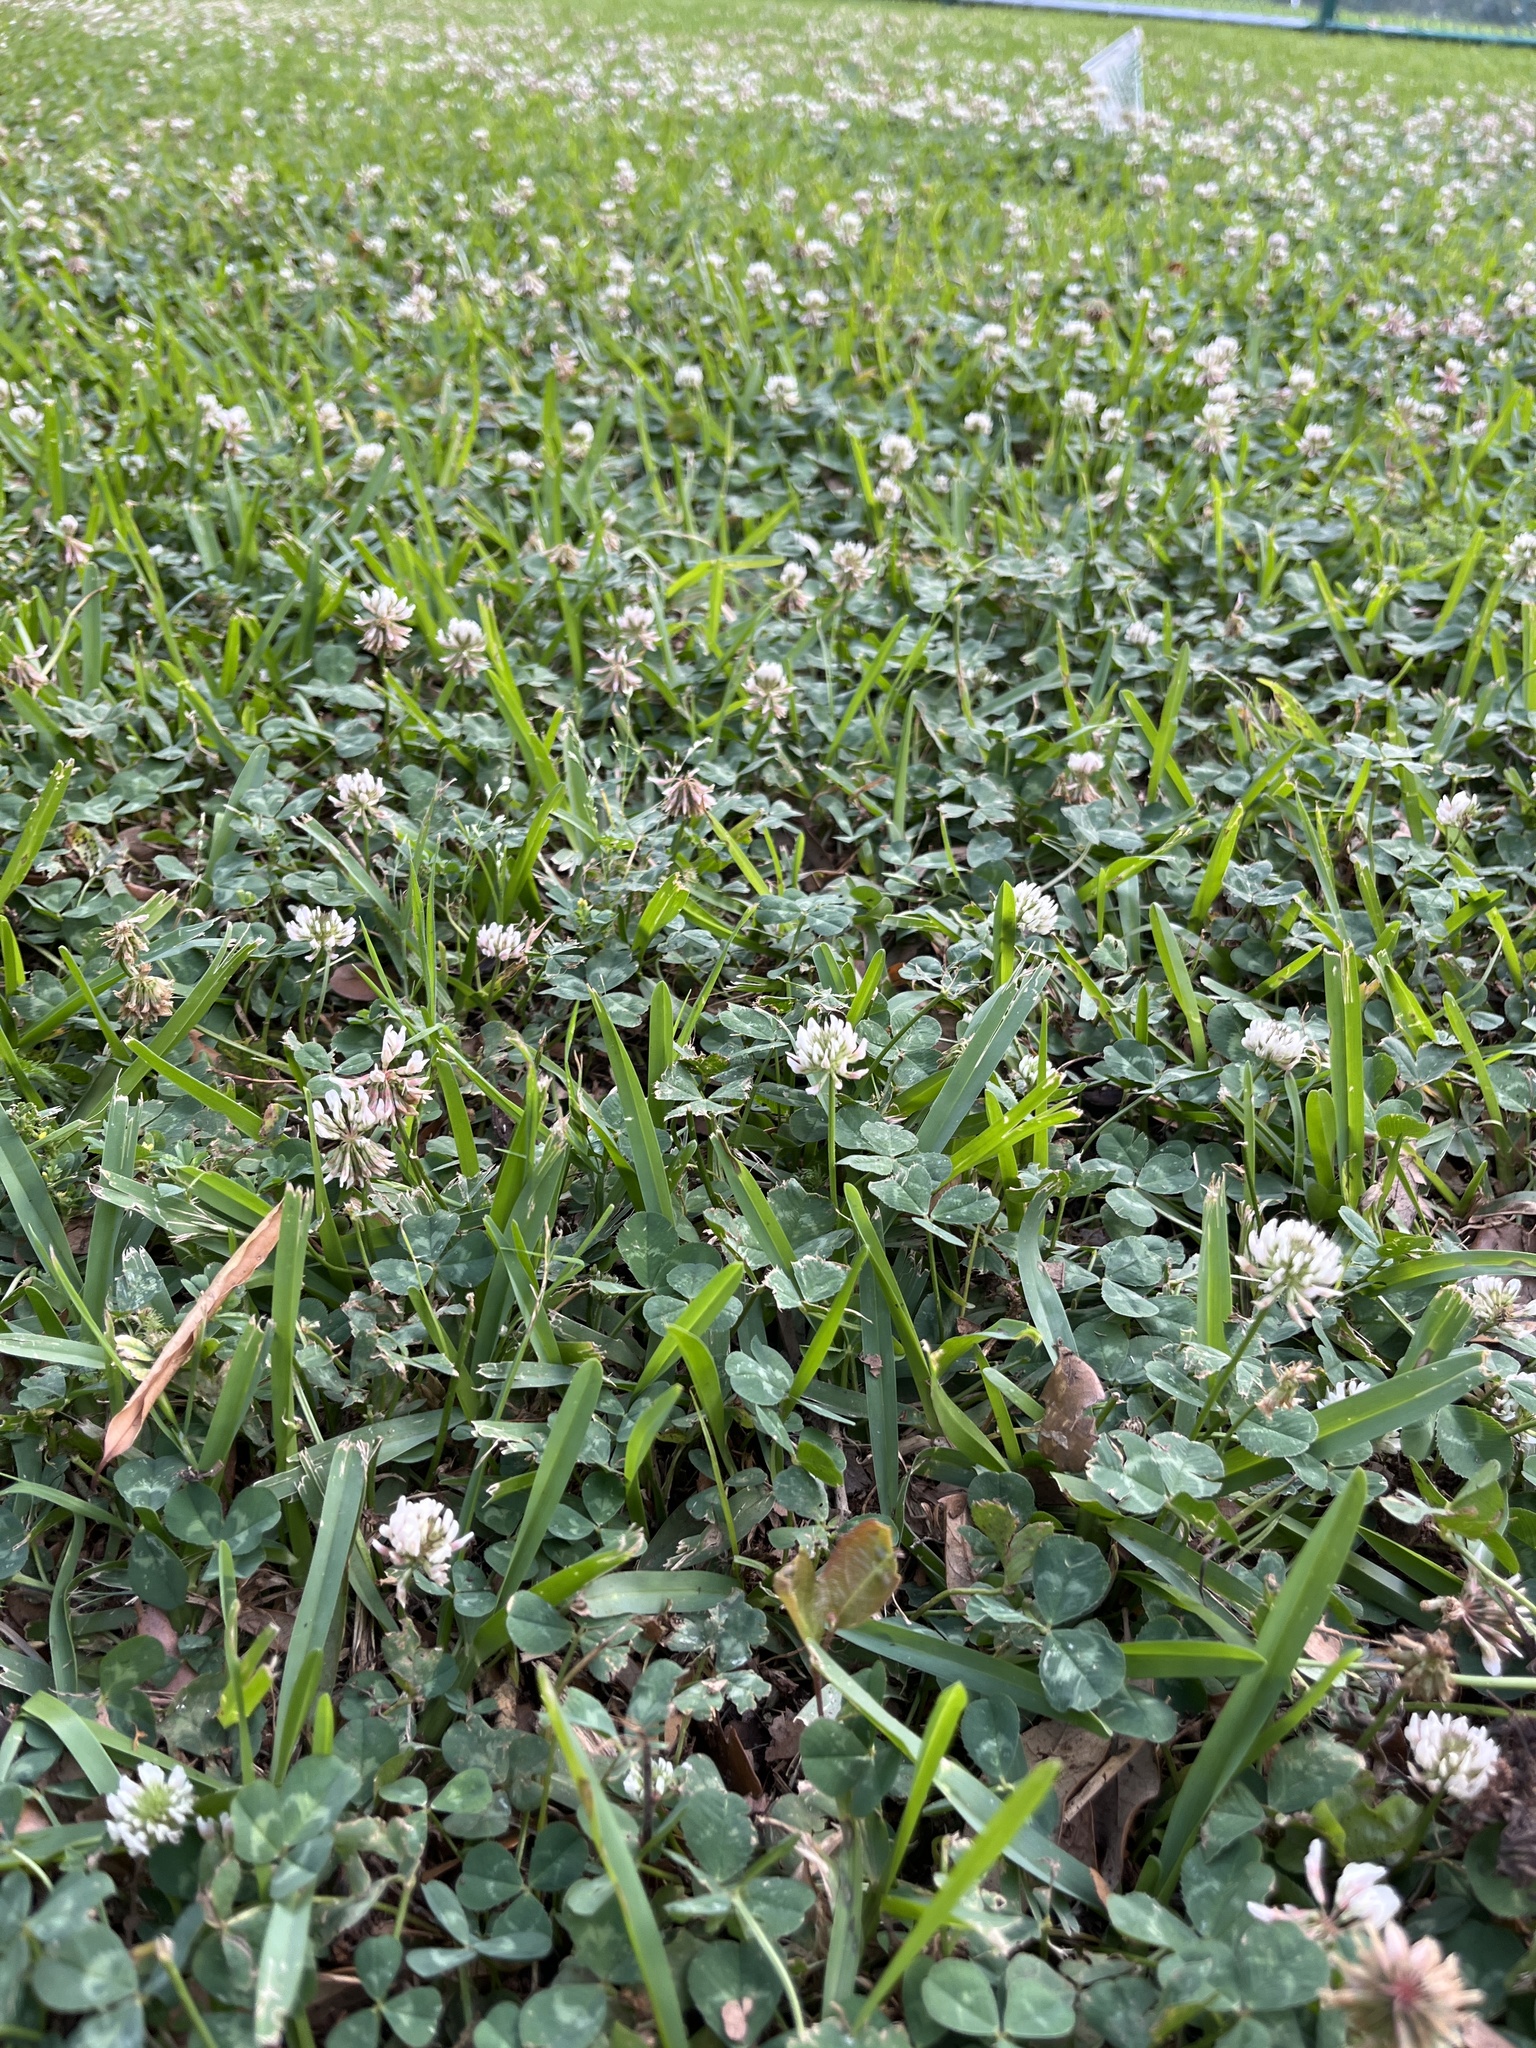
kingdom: Plantae
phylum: Tracheophyta
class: Magnoliopsida
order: Fabales
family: Fabaceae
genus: Trifolium
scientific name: Trifolium repens
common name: White clover
